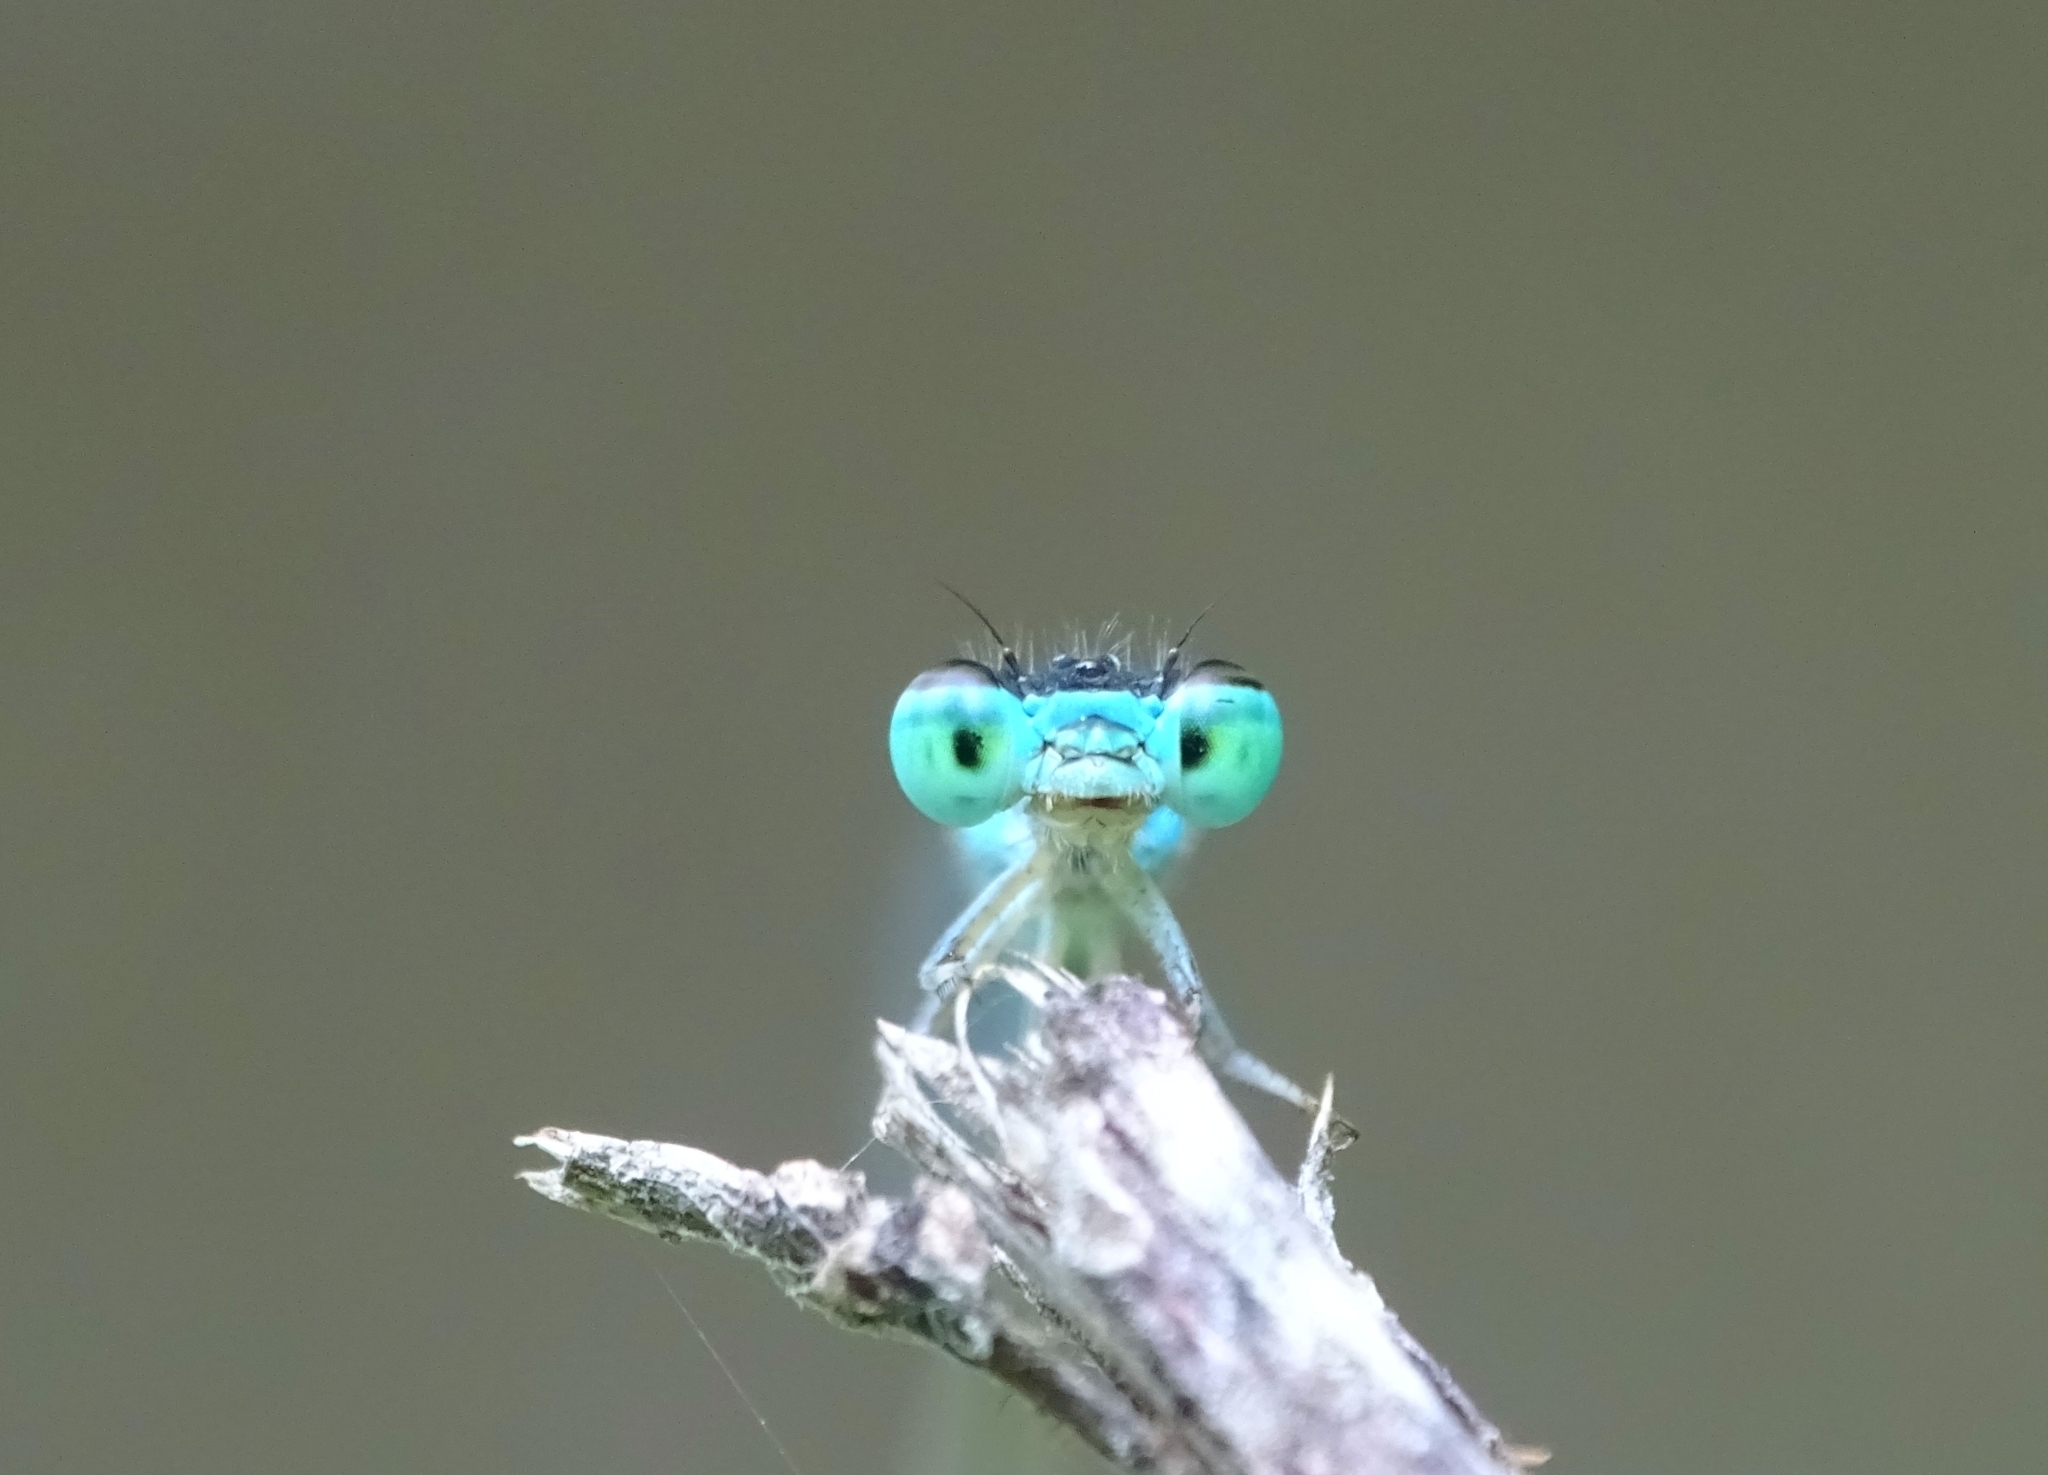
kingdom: Animalia
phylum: Arthropoda
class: Insecta
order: Odonata
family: Coenagrionidae
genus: Aciagrion
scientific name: Aciagrion occidentale
